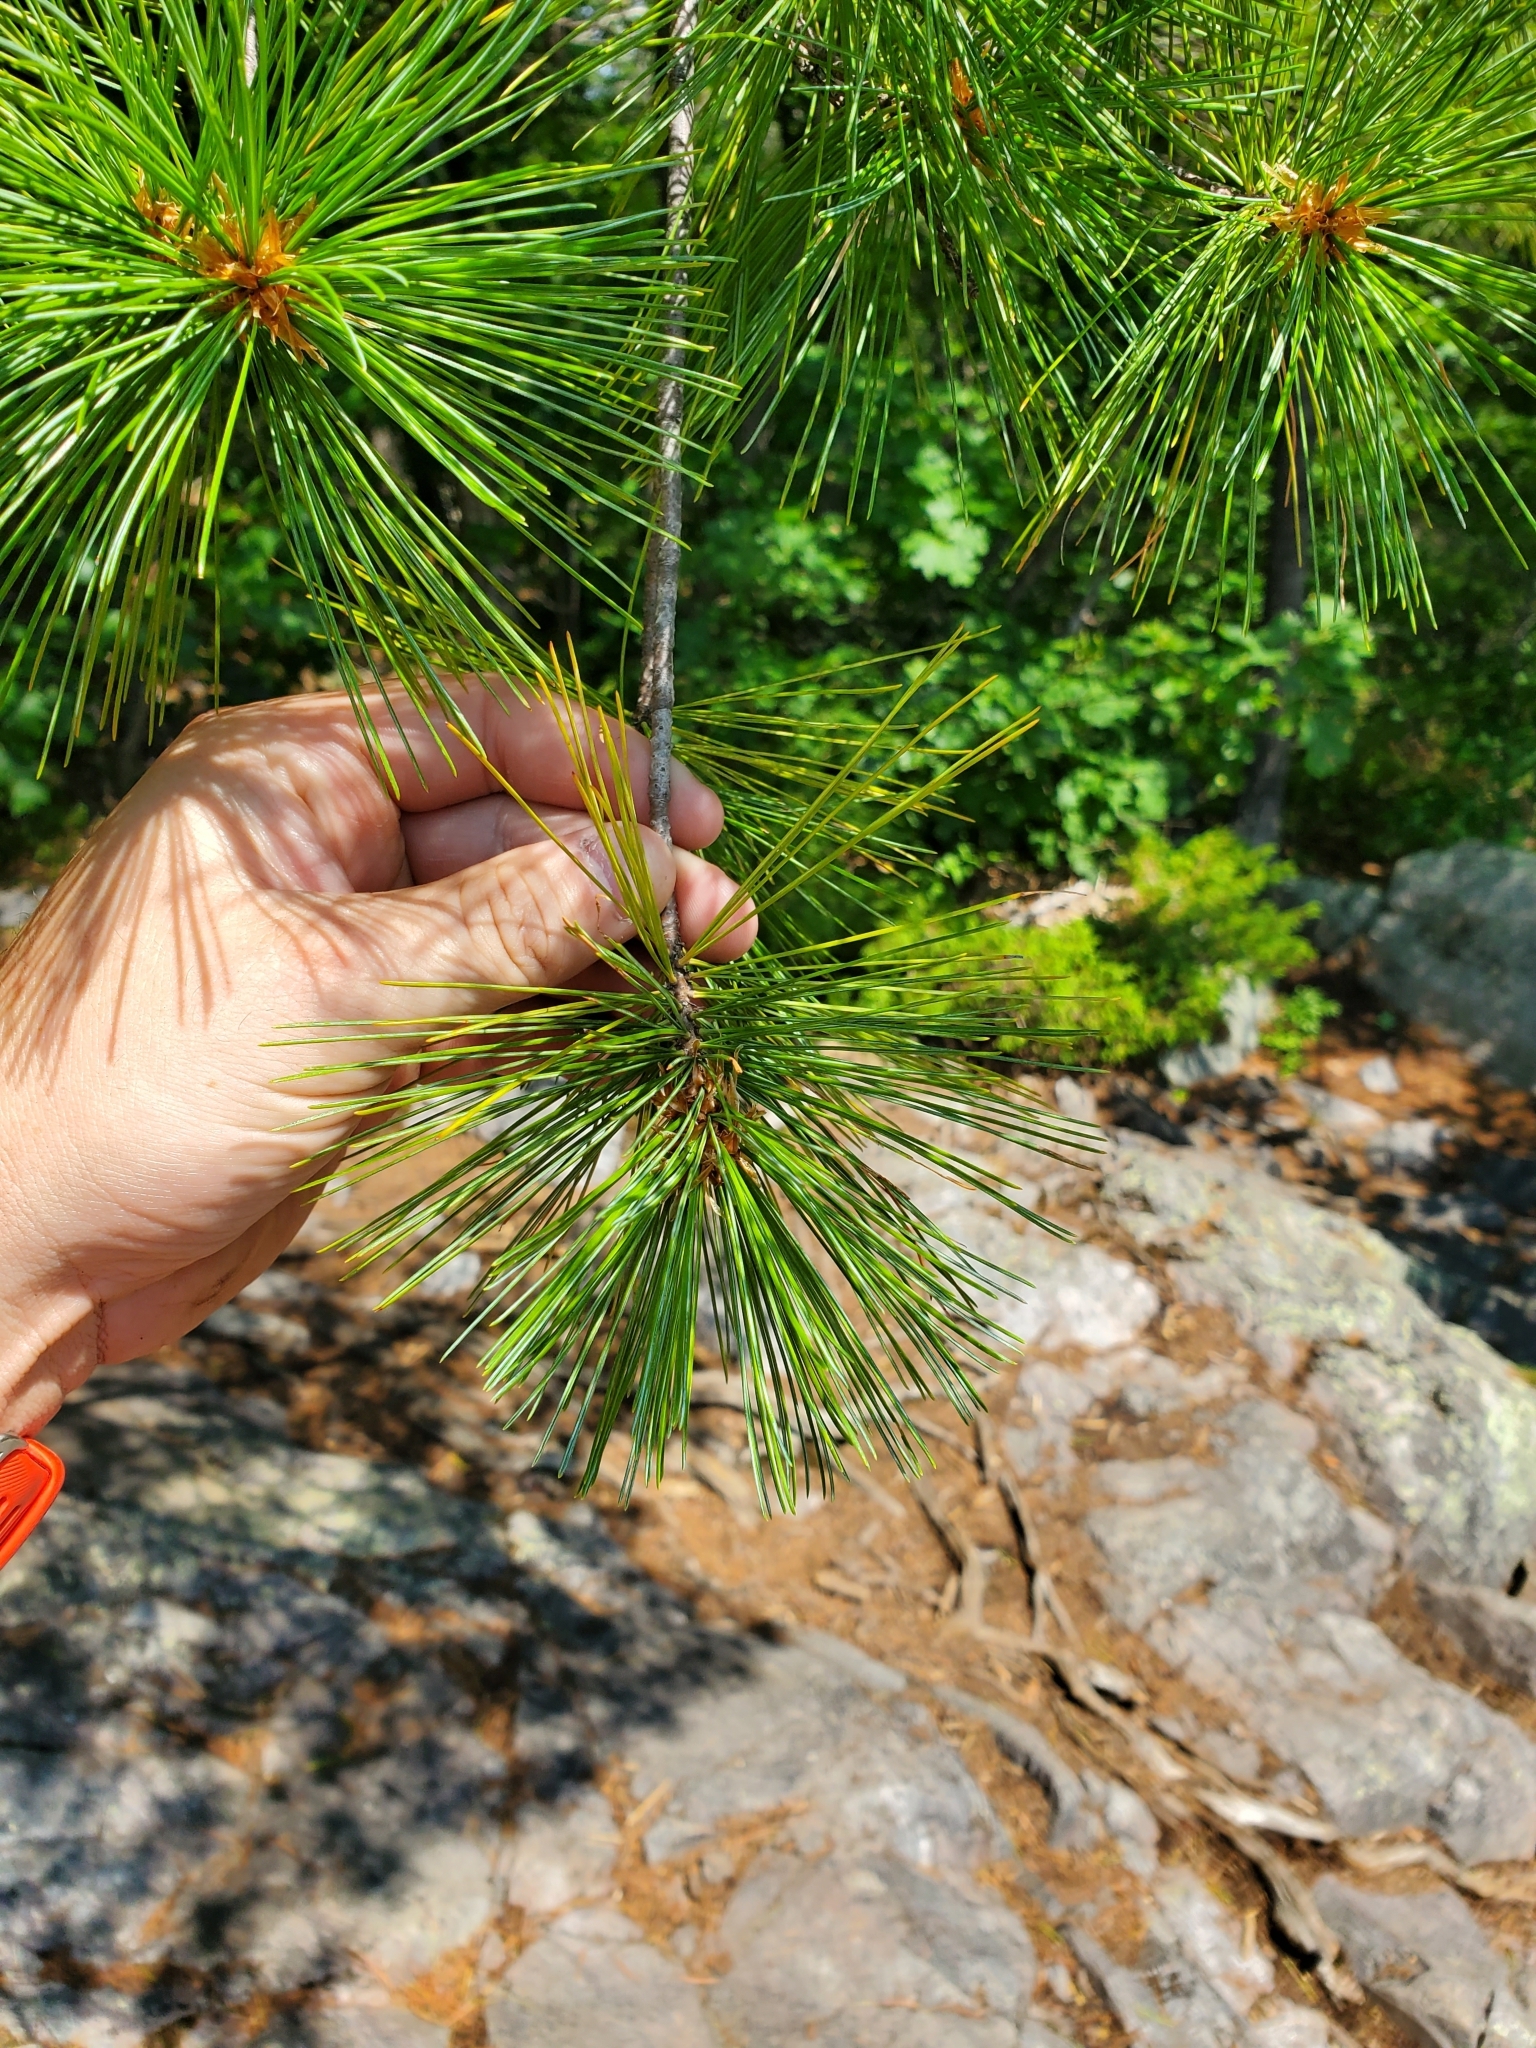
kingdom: Plantae
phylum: Tracheophyta
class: Pinopsida
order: Pinales
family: Pinaceae
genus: Pinus
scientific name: Pinus resinosa
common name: Norway pine
